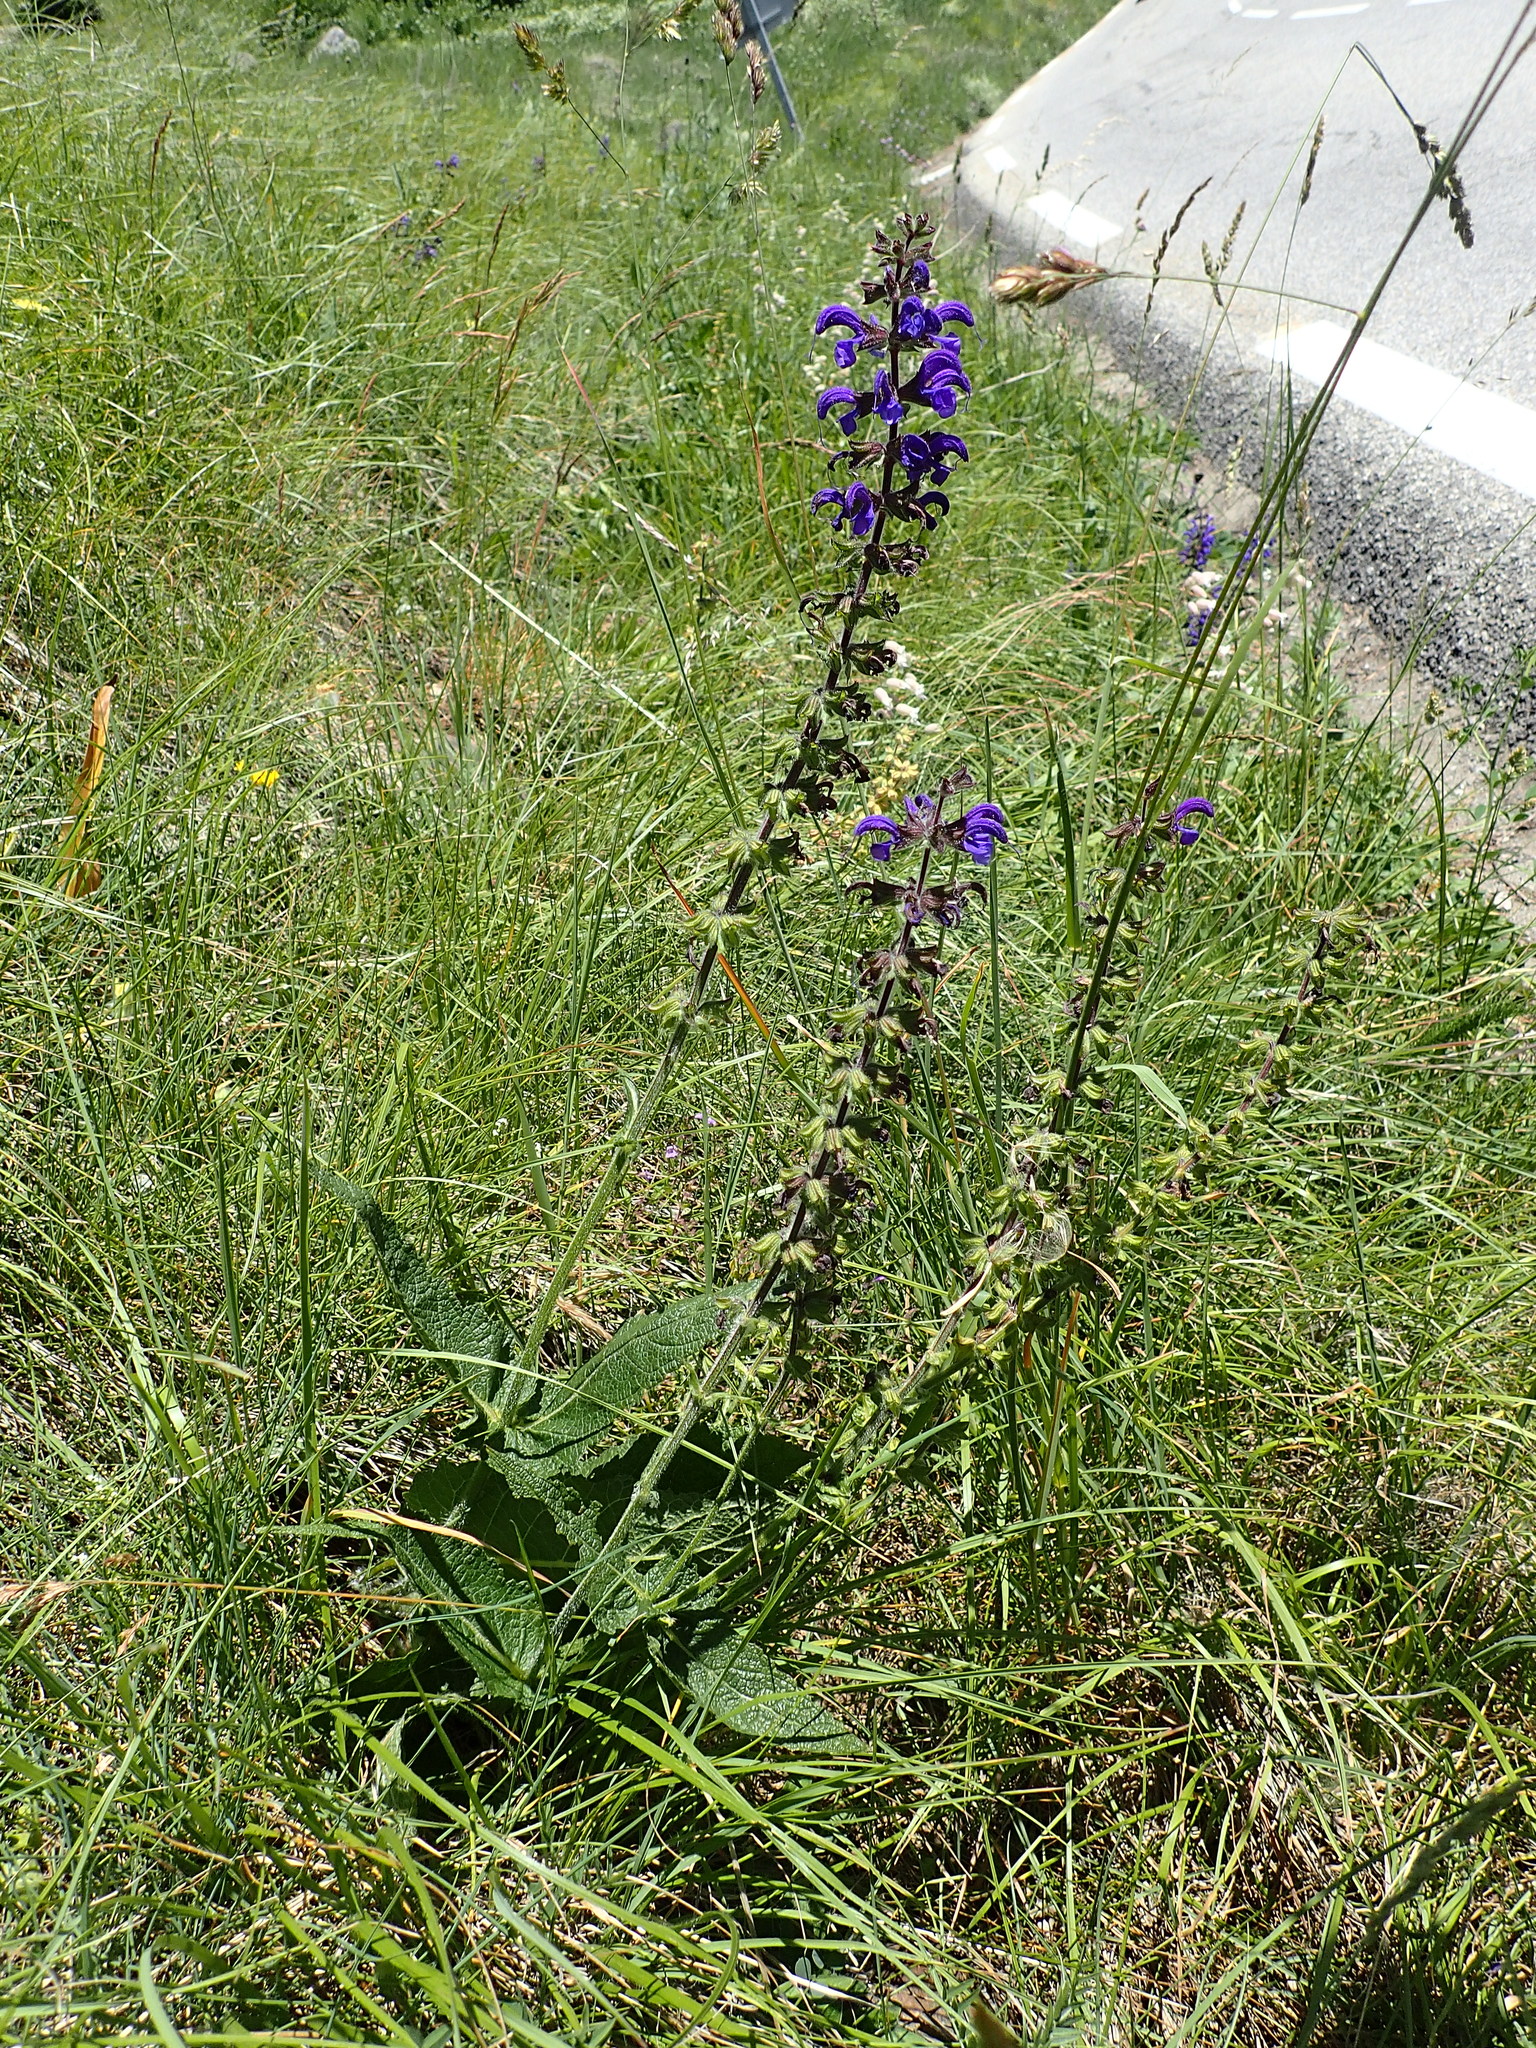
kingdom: Plantae
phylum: Tracheophyta
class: Magnoliopsida
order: Lamiales
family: Lamiaceae
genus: Salvia
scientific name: Salvia pratensis
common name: Meadow sage
